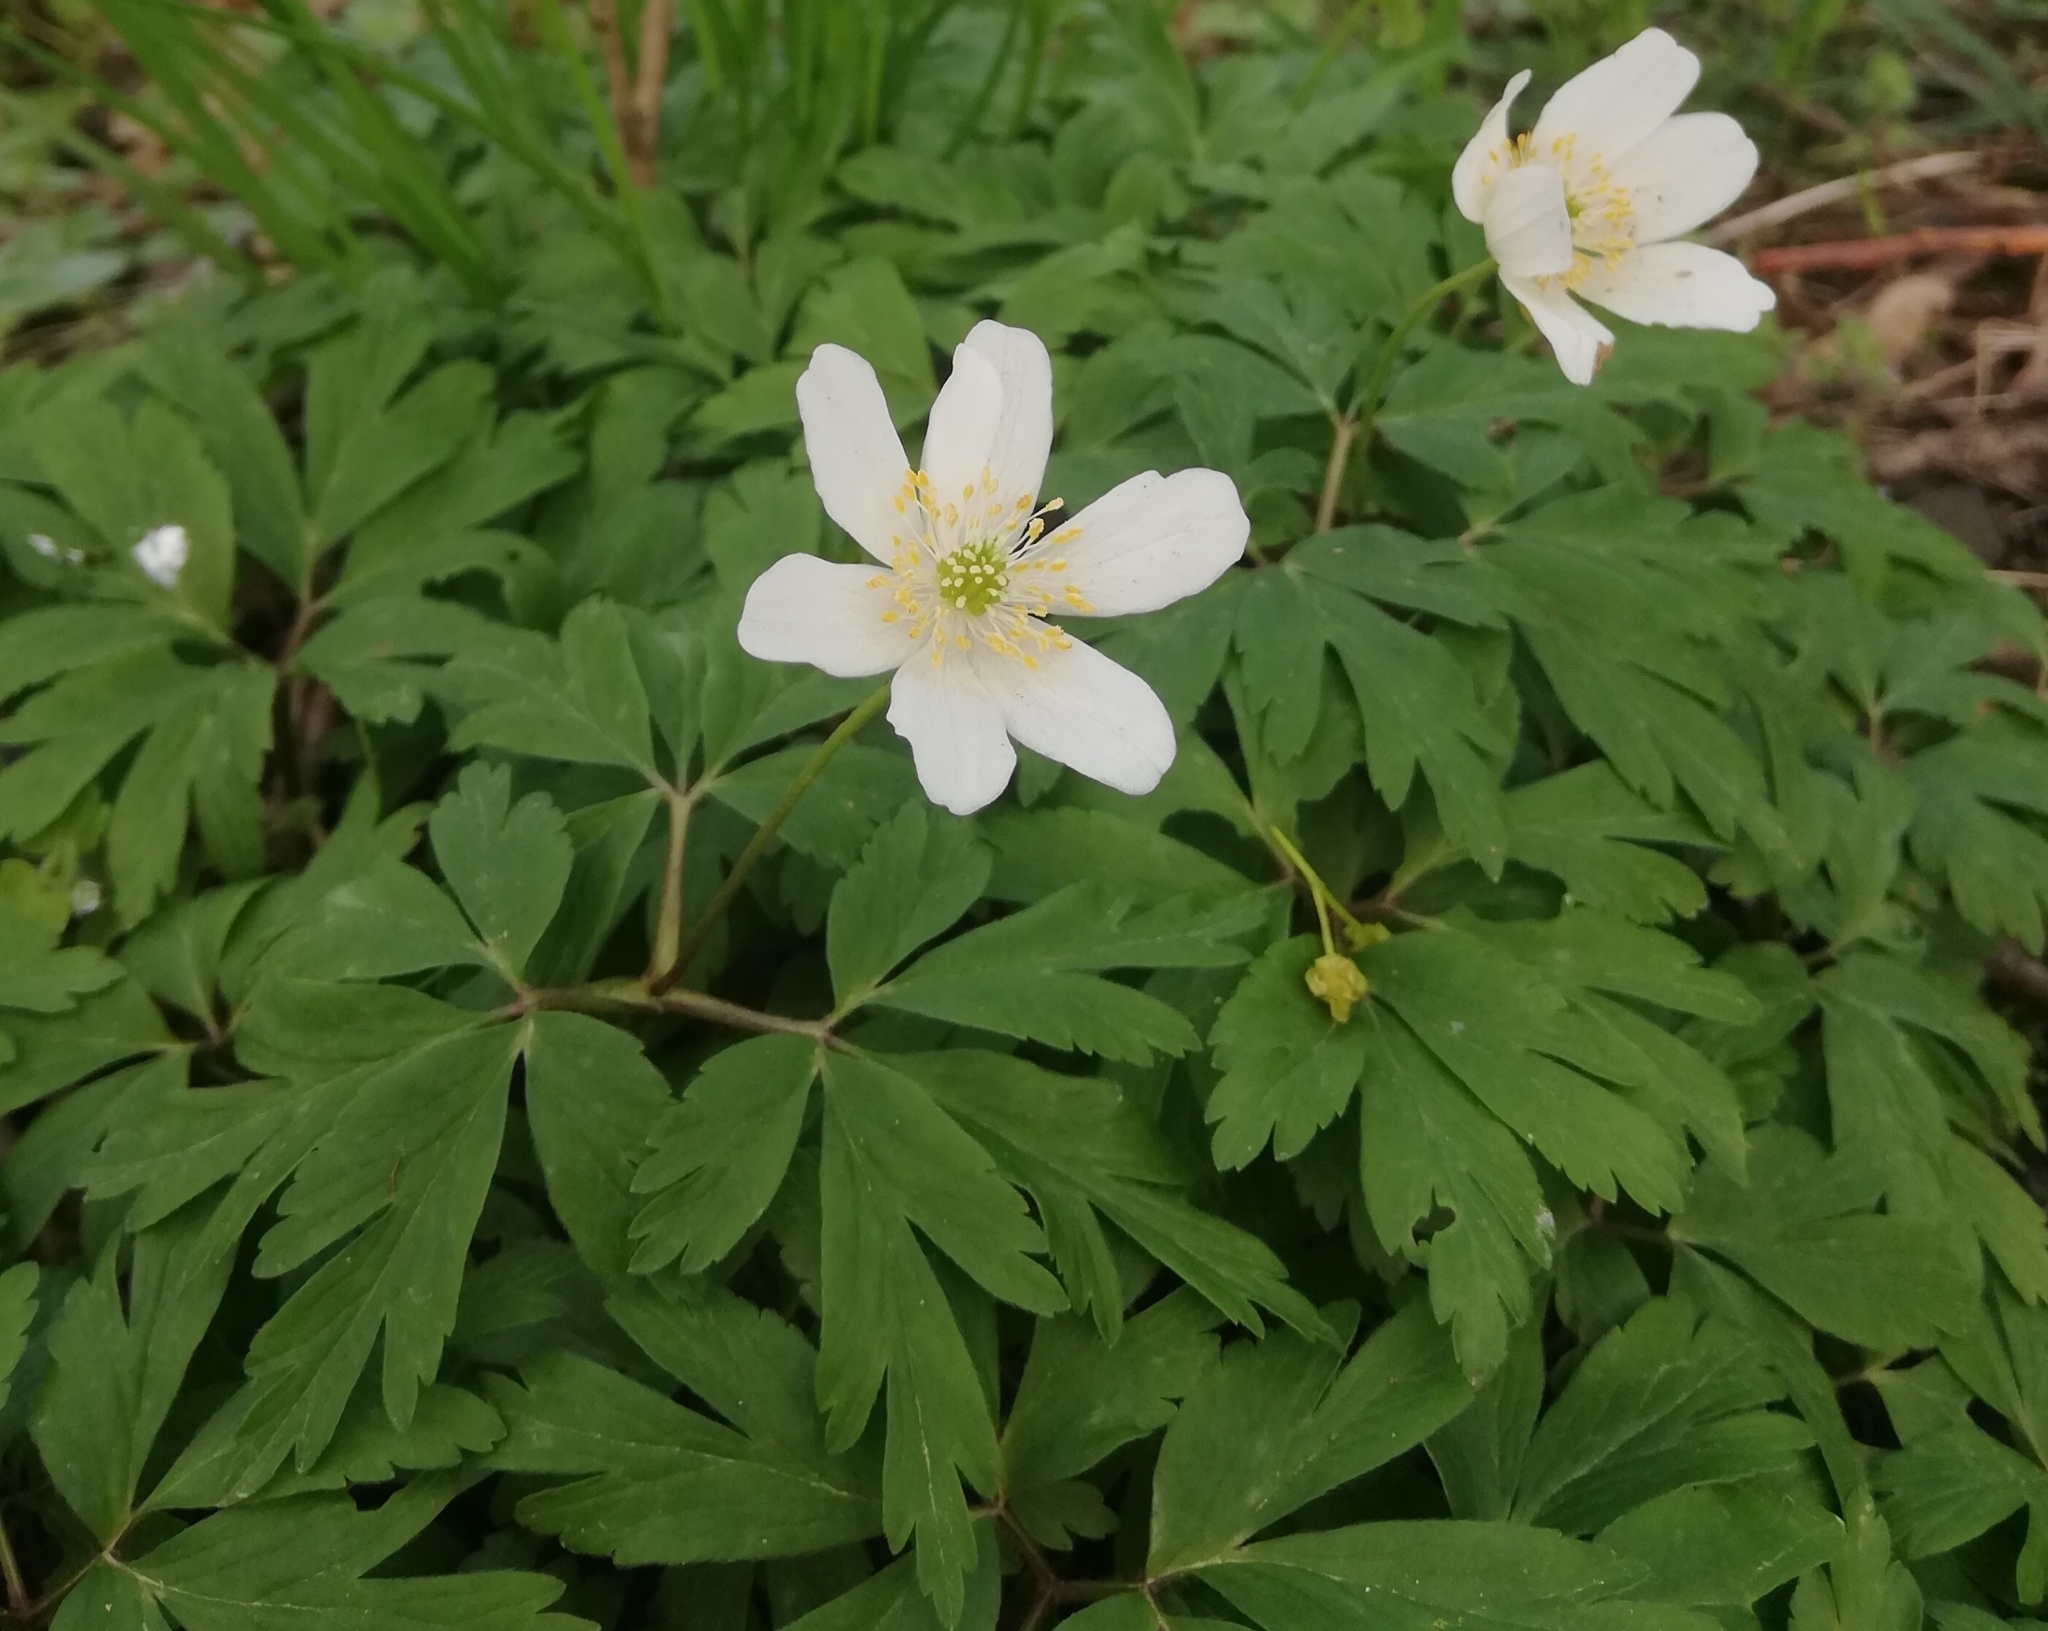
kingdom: Plantae
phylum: Tracheophyta
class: Magnoliopsida
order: Ranunculales
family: Ranunculaceae
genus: Anemone
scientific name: Anemone nemorosa
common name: Wood anemone
